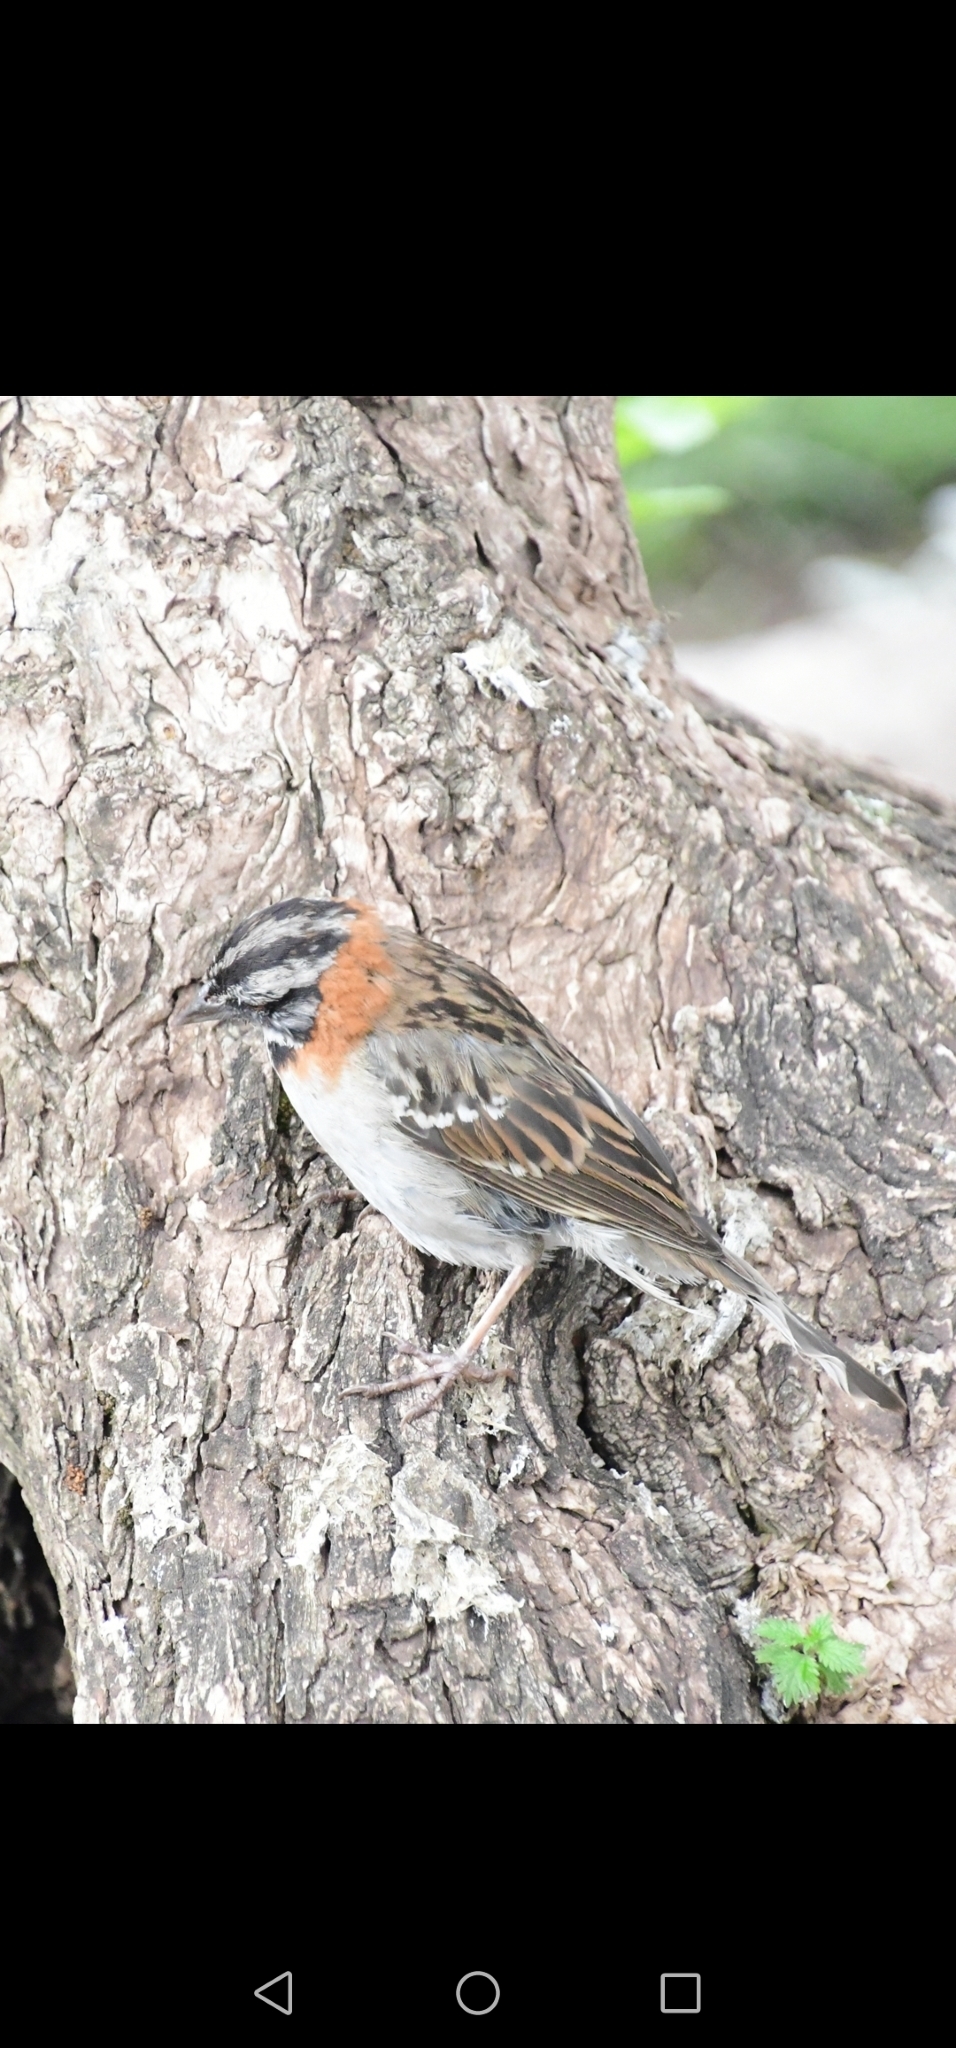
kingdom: Animalia
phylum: Chordata
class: Aves
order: Passeriformes
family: Passerellidae
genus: Zonotrichia
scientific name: Zonotrichia capensis
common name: Rufous-collared sparrow
